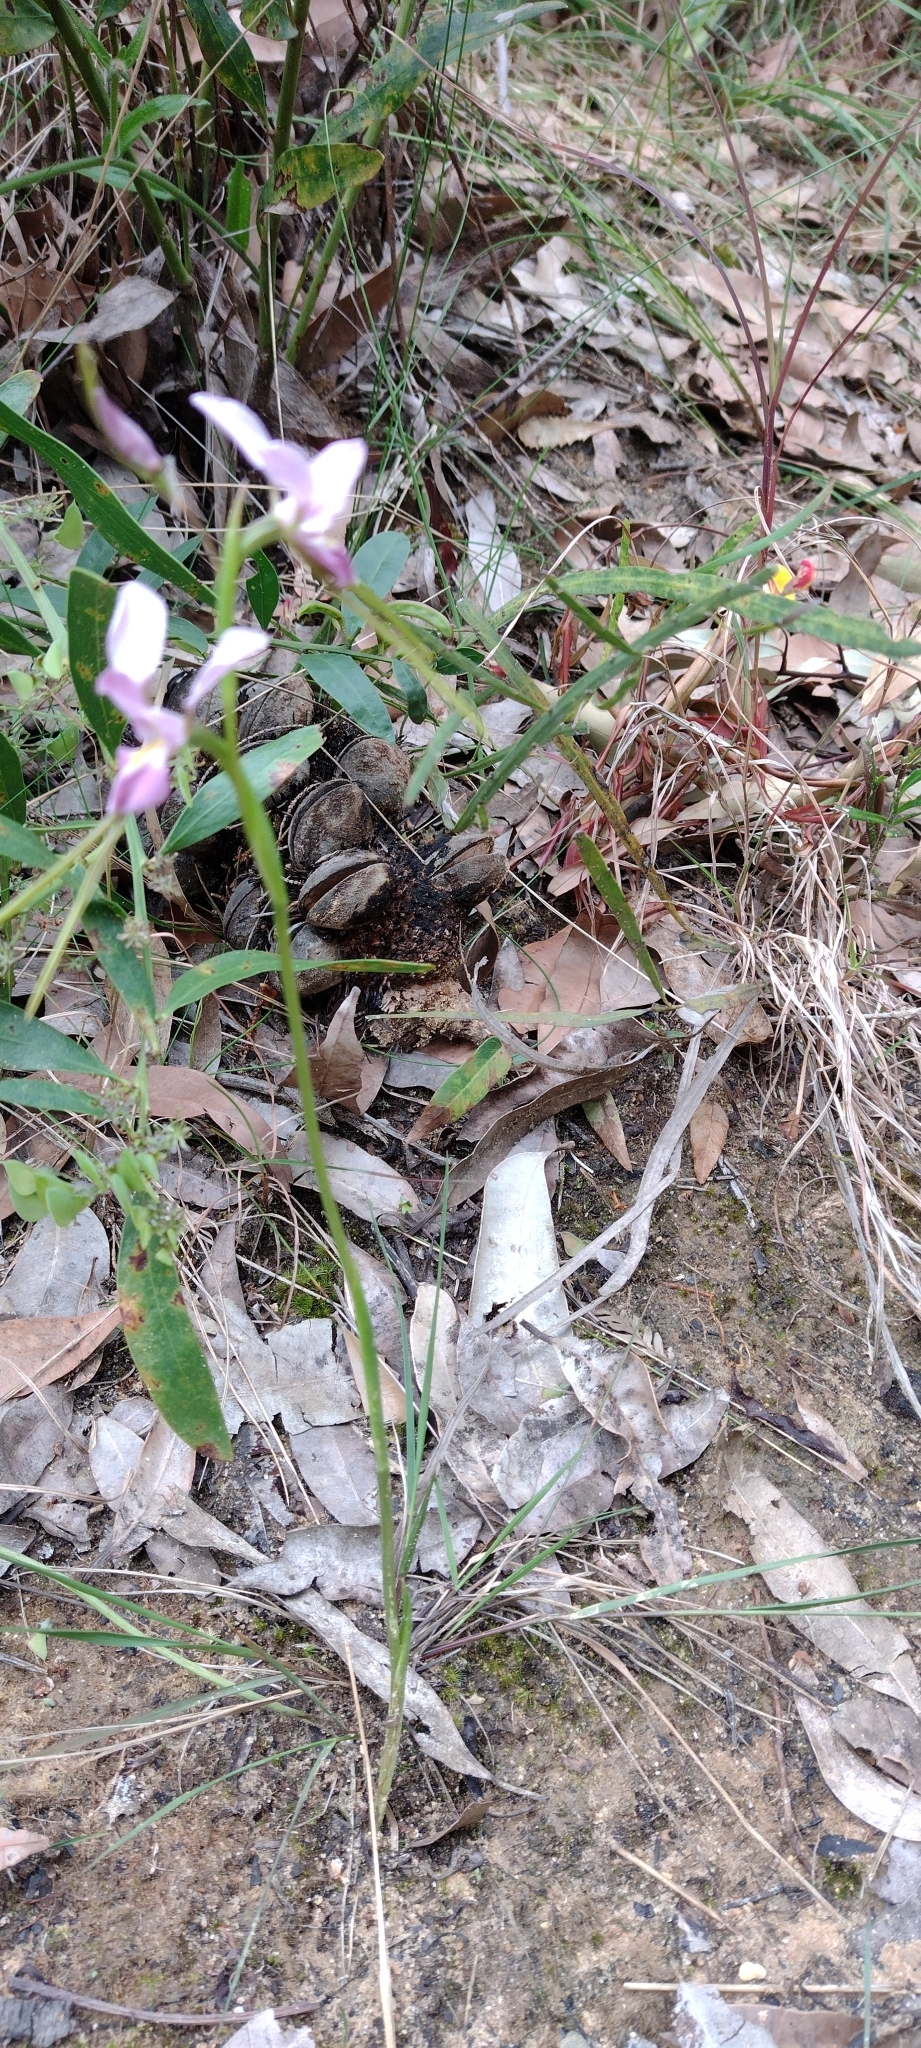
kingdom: Plantae
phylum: Tracheophyta
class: Liliopsida
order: Asparagales
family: Orchidaceae
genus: Diuris
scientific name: Diuris punctata
